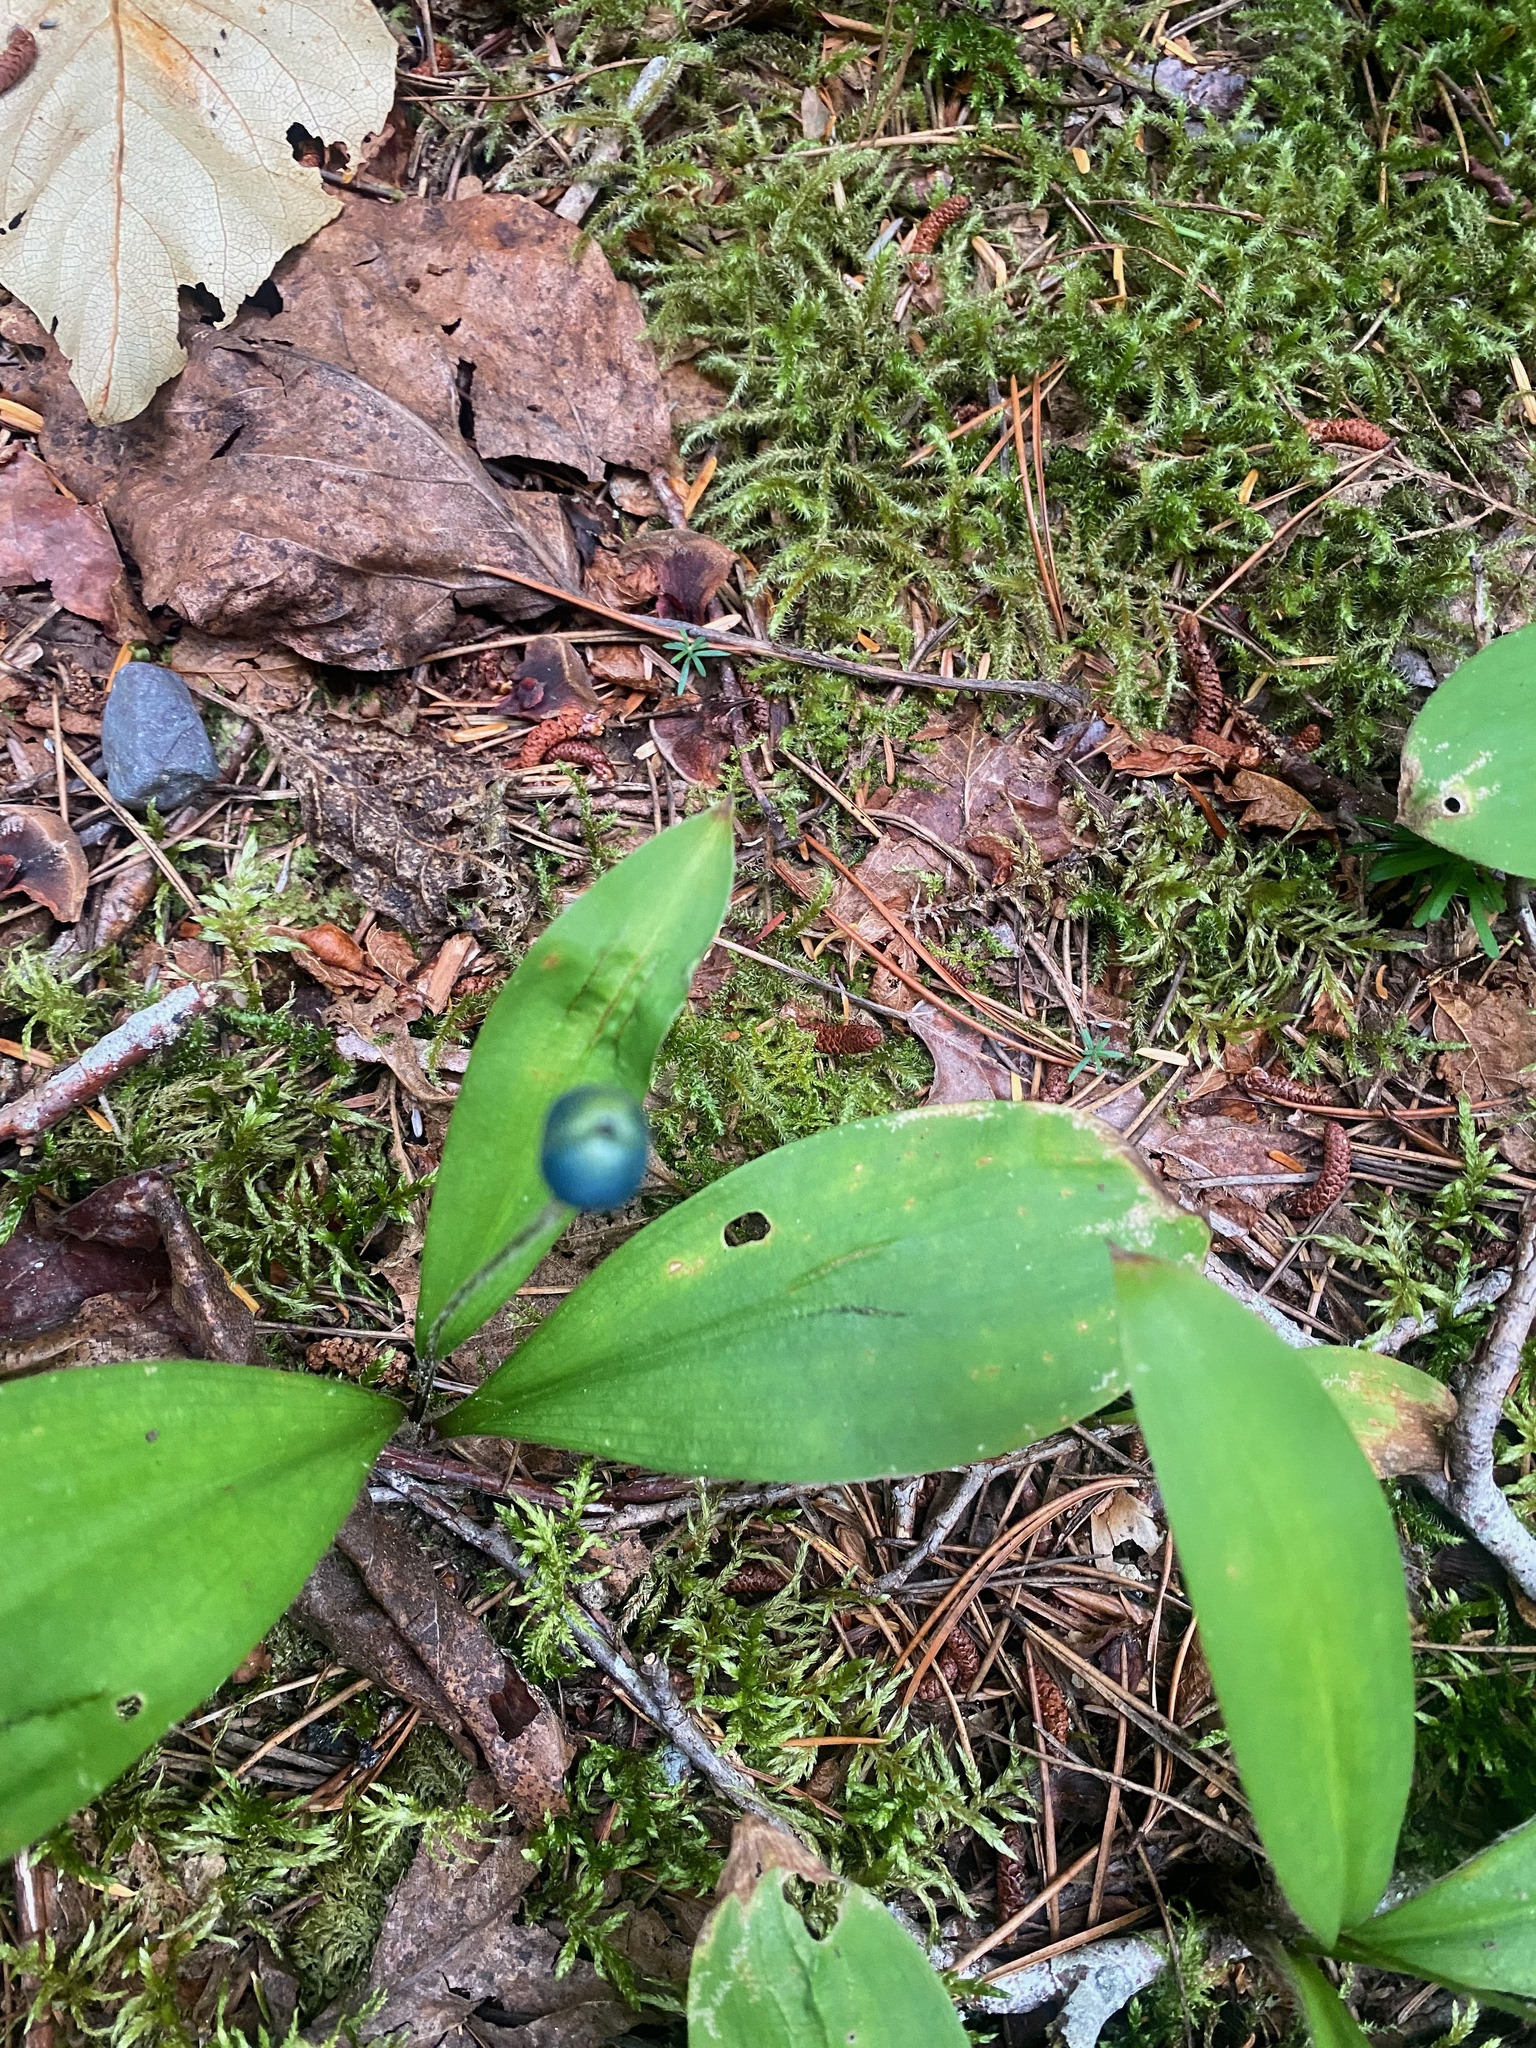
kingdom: Plantae
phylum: Tracheophyta
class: Liliopsida
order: Liliales
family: Liliaceae
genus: Clintonia
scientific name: Clintonia uniflora
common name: Queen's cup
